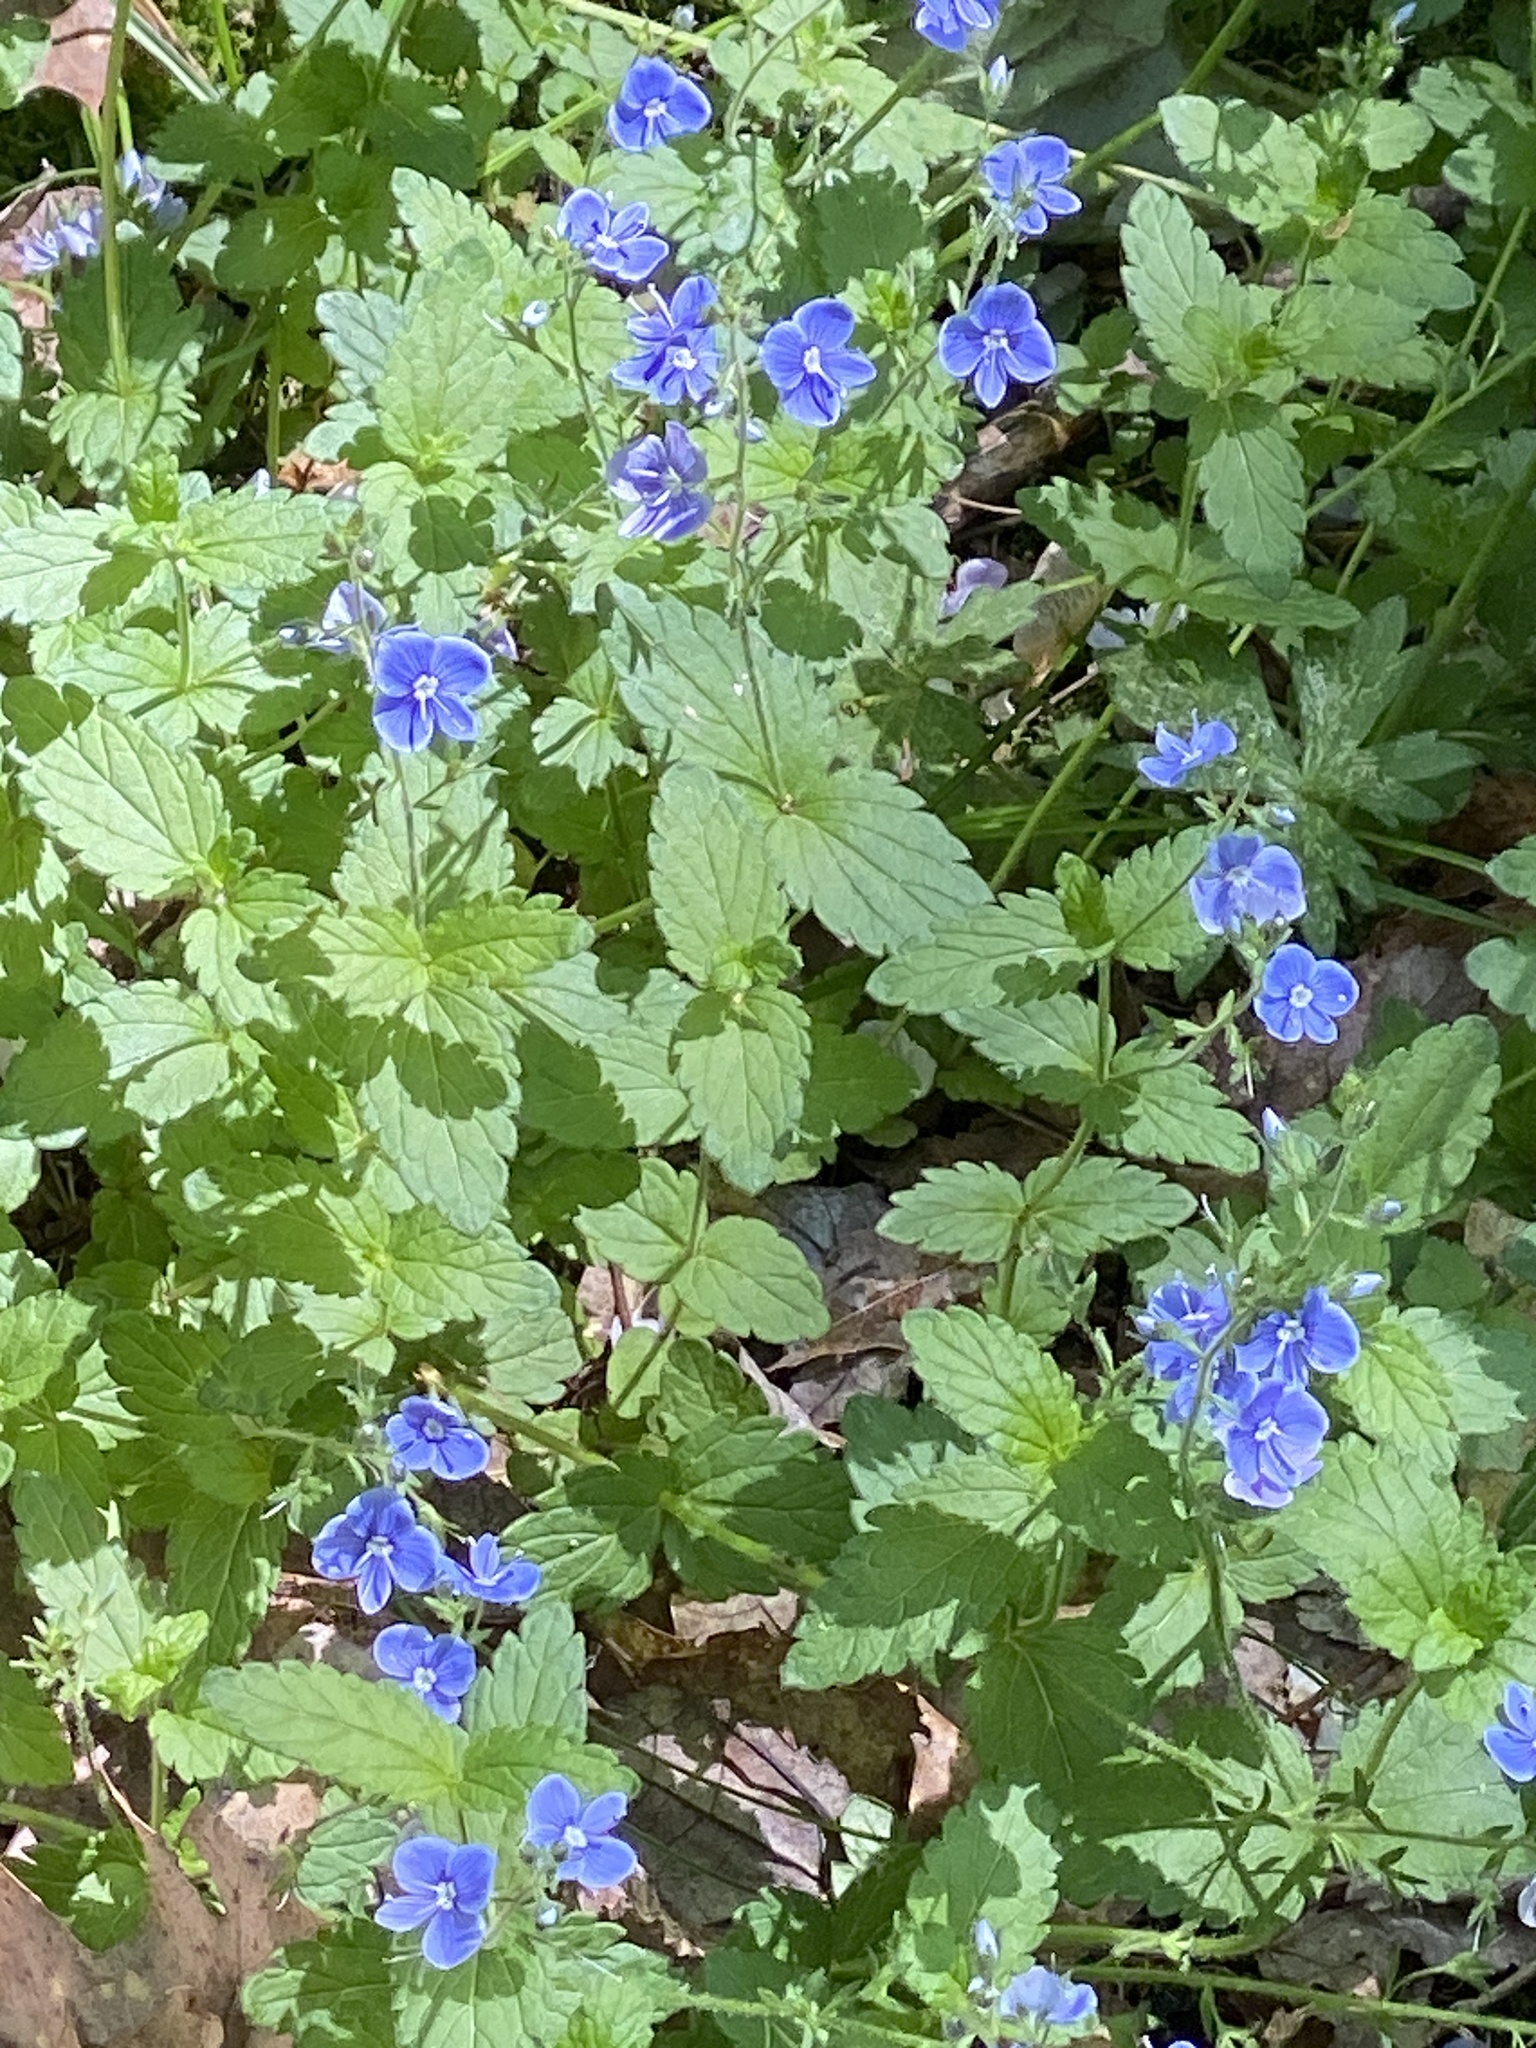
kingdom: Plantae
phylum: Tracheophyta
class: Magnoliopsida
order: Lamiales
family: Plantaginaceae
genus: Veronica
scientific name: Veronica chamaedrys
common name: Germander speedwell
